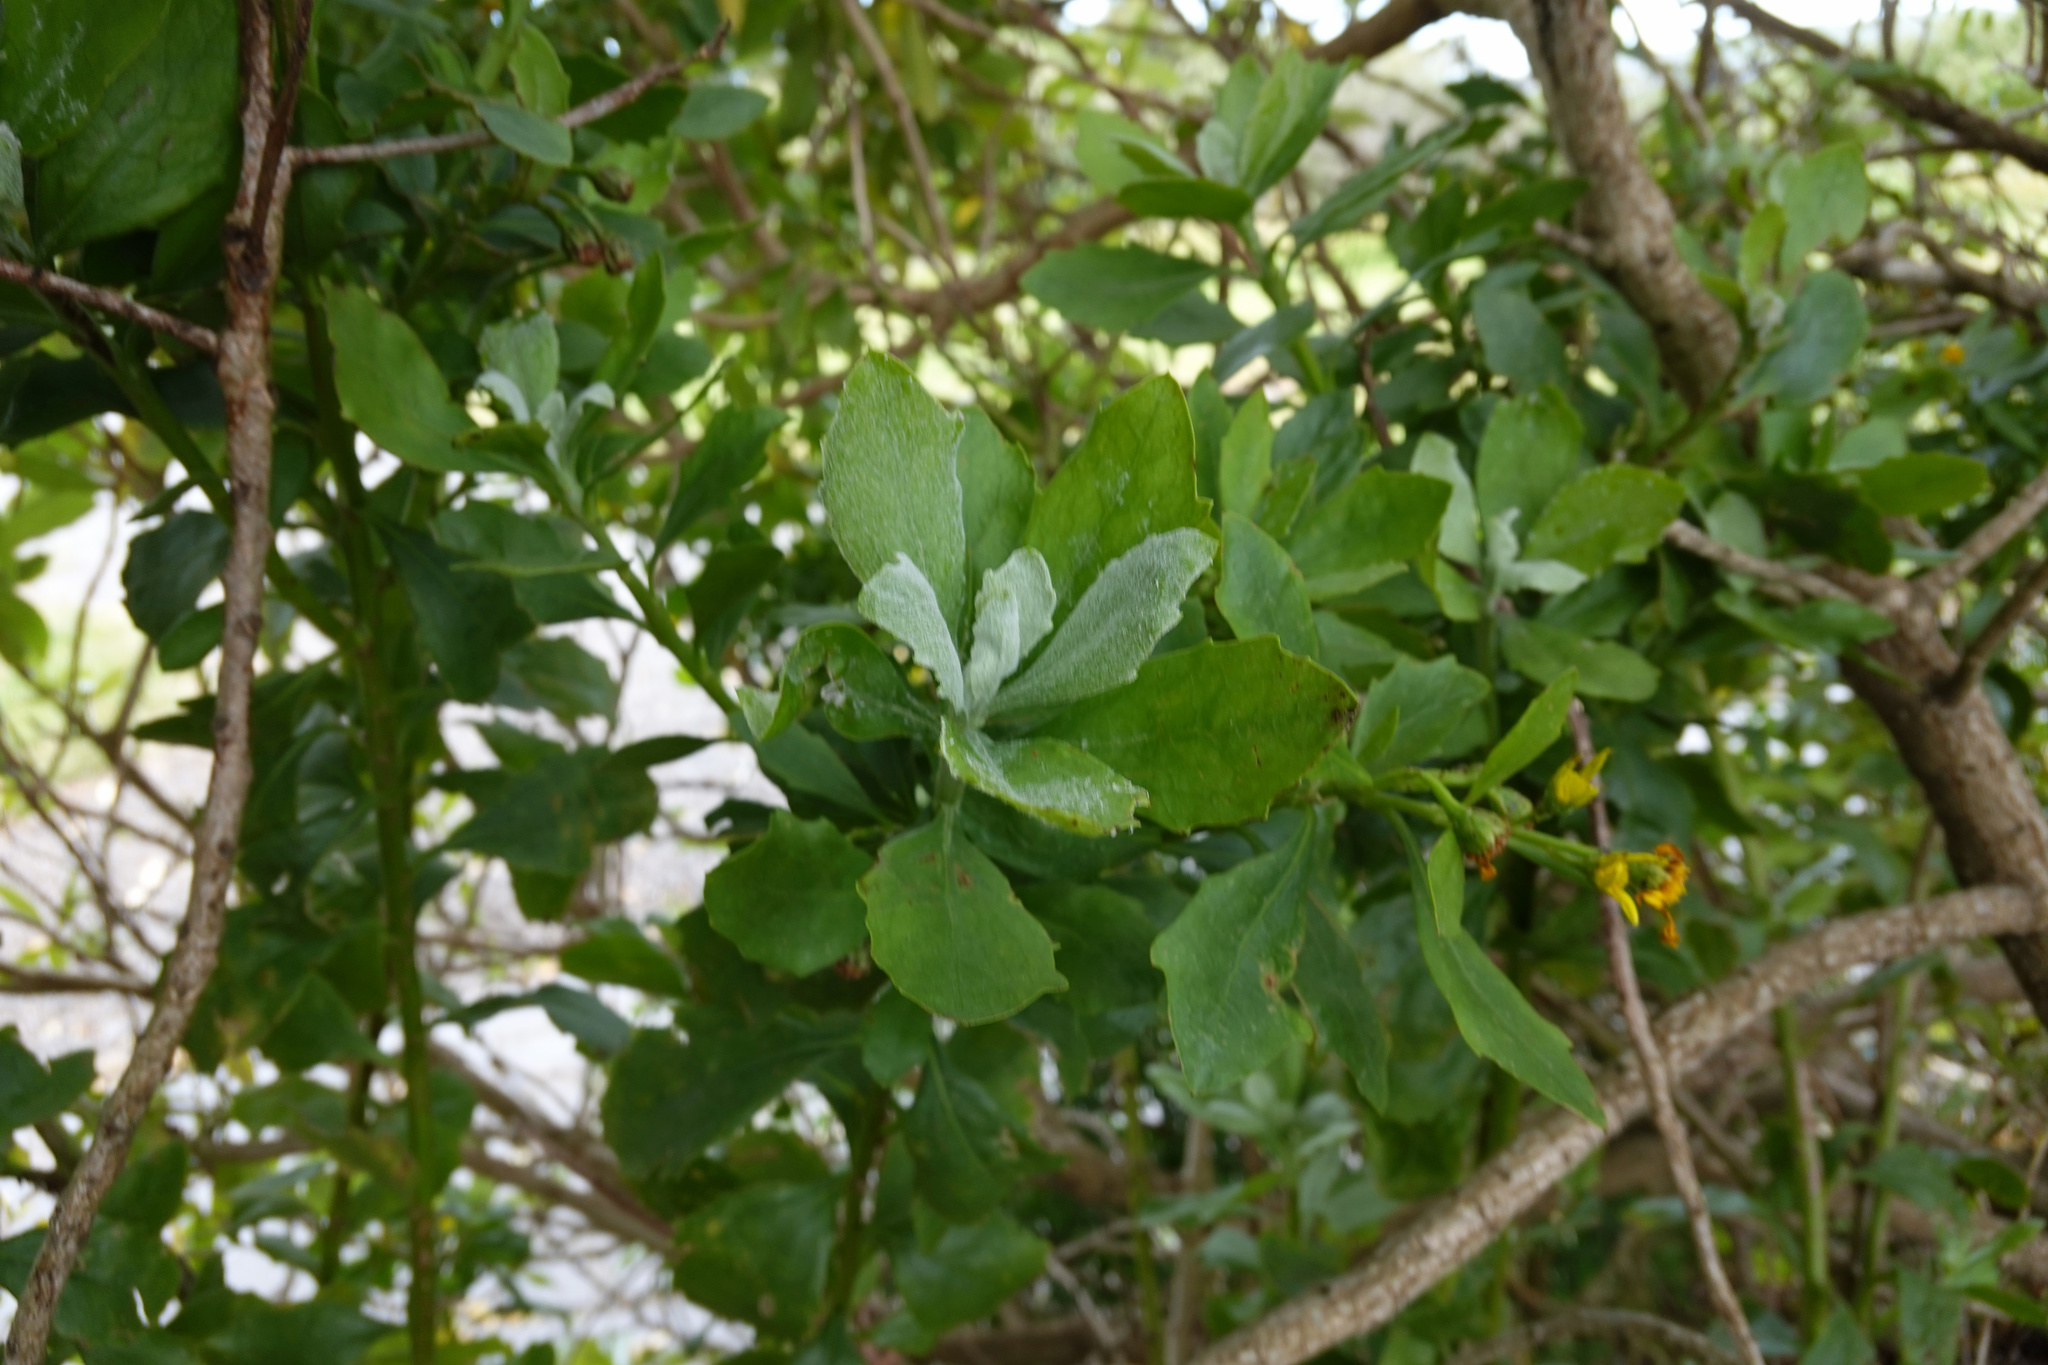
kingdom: Plantae
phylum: Tracheophyta
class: Magnoliopsida
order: Asterales
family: Asteraceae
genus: Osteospermum
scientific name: Osteospermum moniliferum
